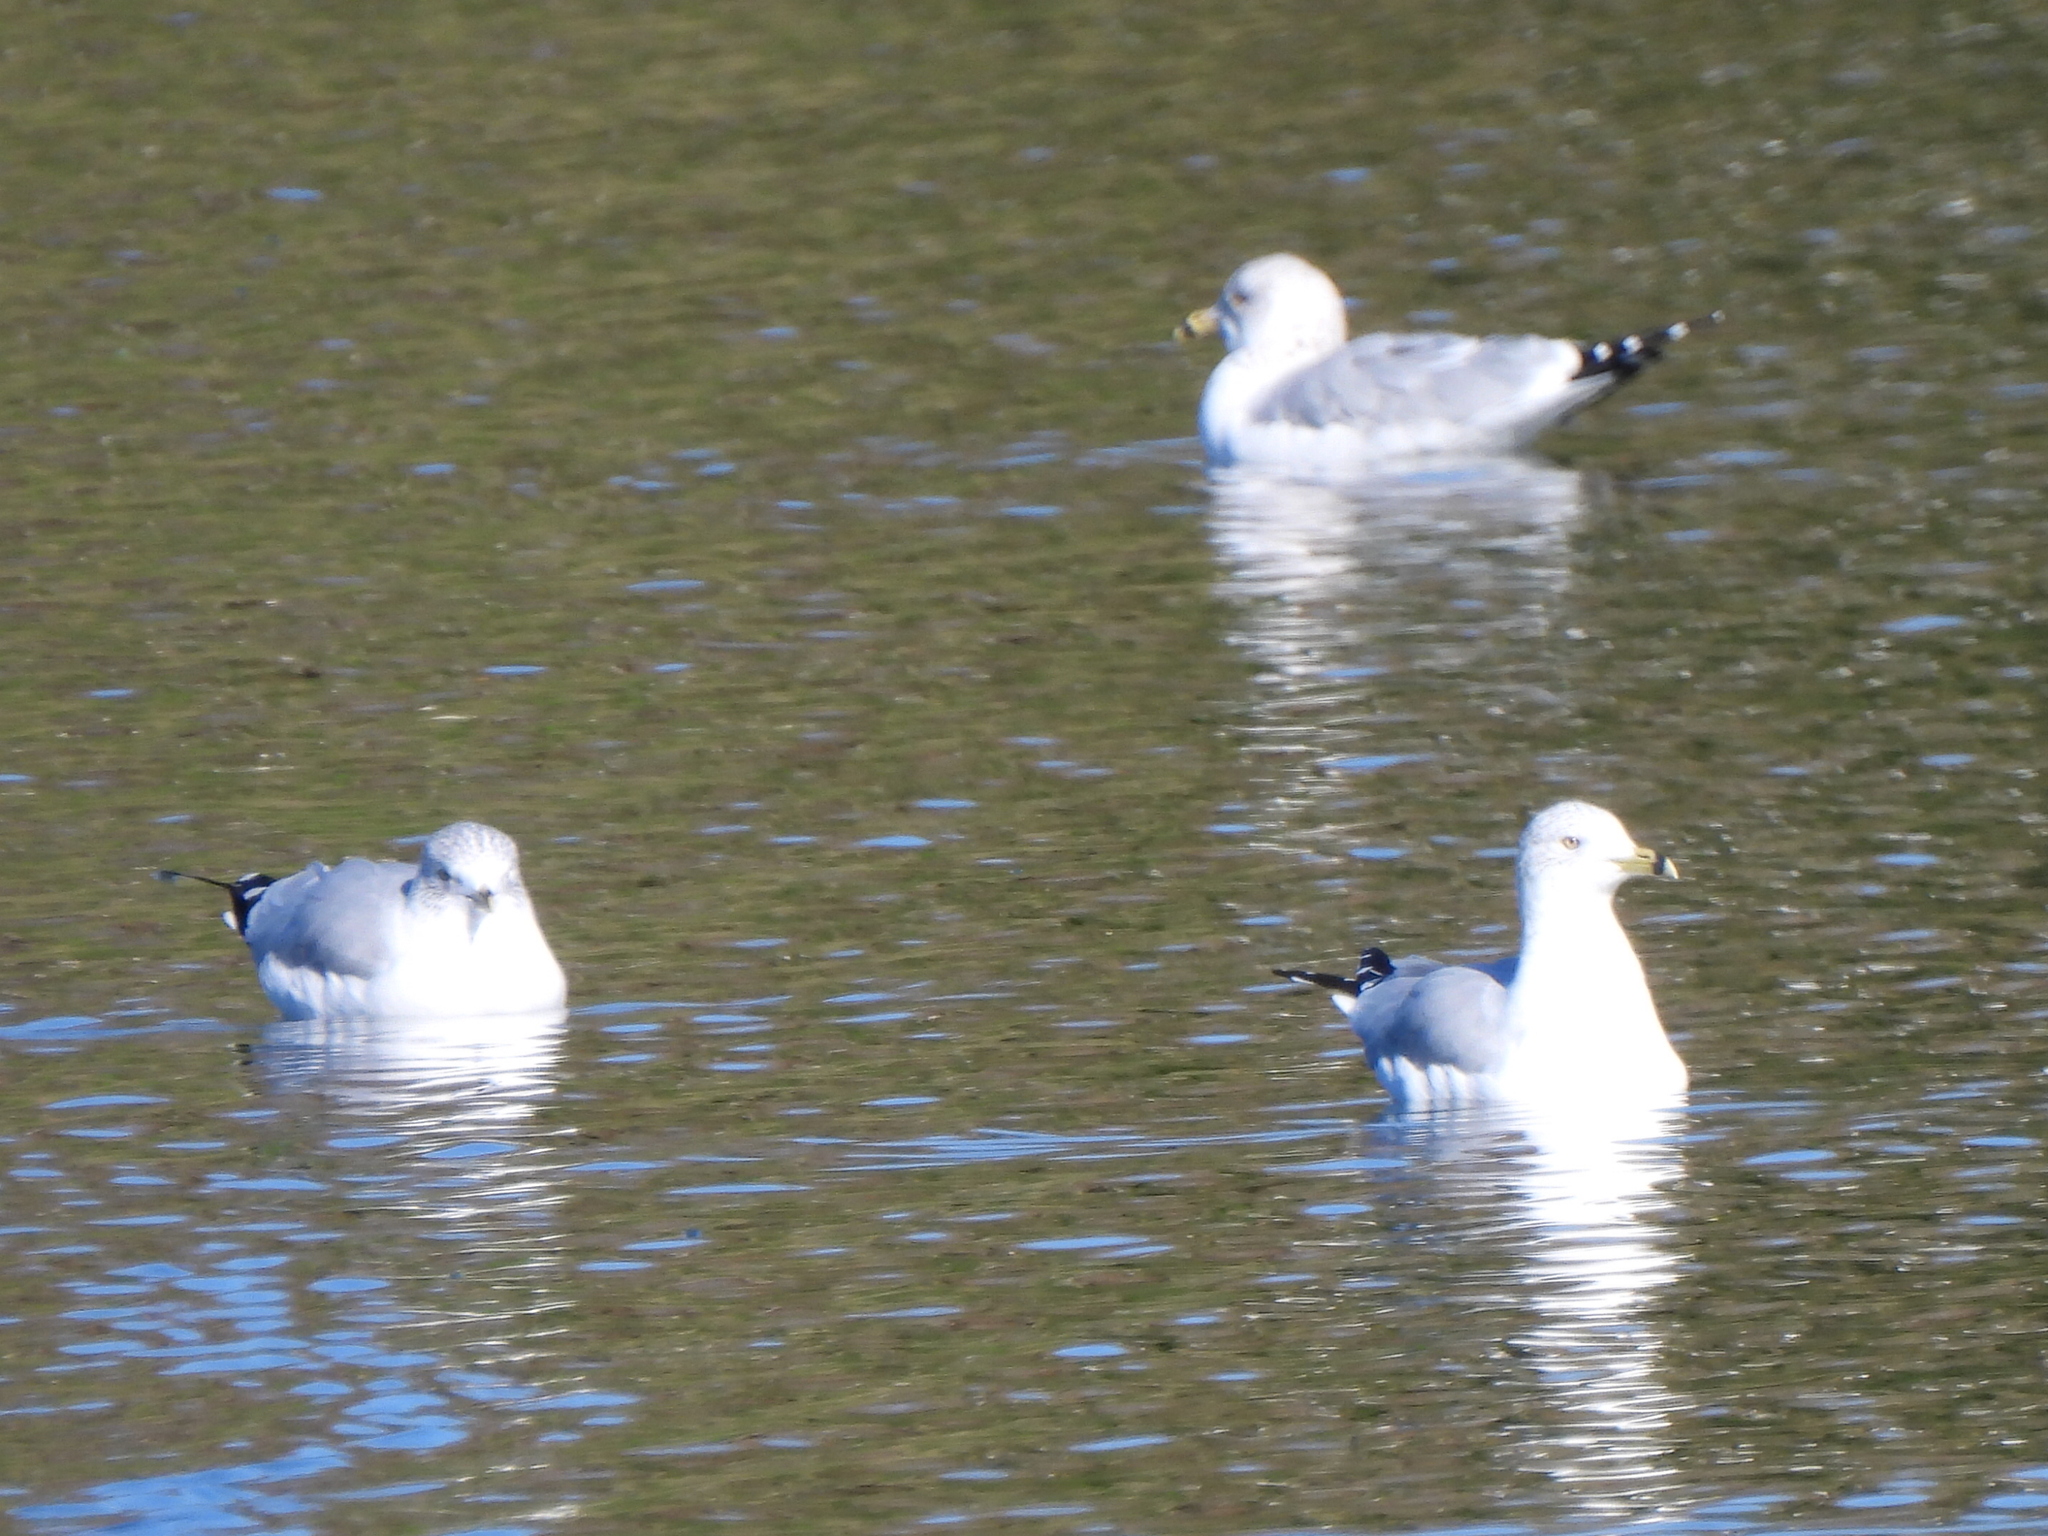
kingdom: Animalia
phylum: Chordata
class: Aves
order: Charadriiformes
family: Laridae
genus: Larus
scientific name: Larus delawarensis
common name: Ring-billed gull
